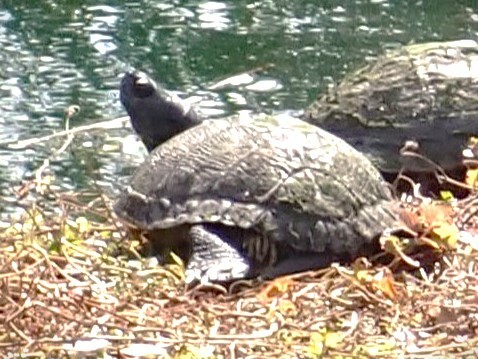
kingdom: Animalia
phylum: Chordata
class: Testudines
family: Emydidae
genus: Trachemys
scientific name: Trachemys scripta
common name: Slider
